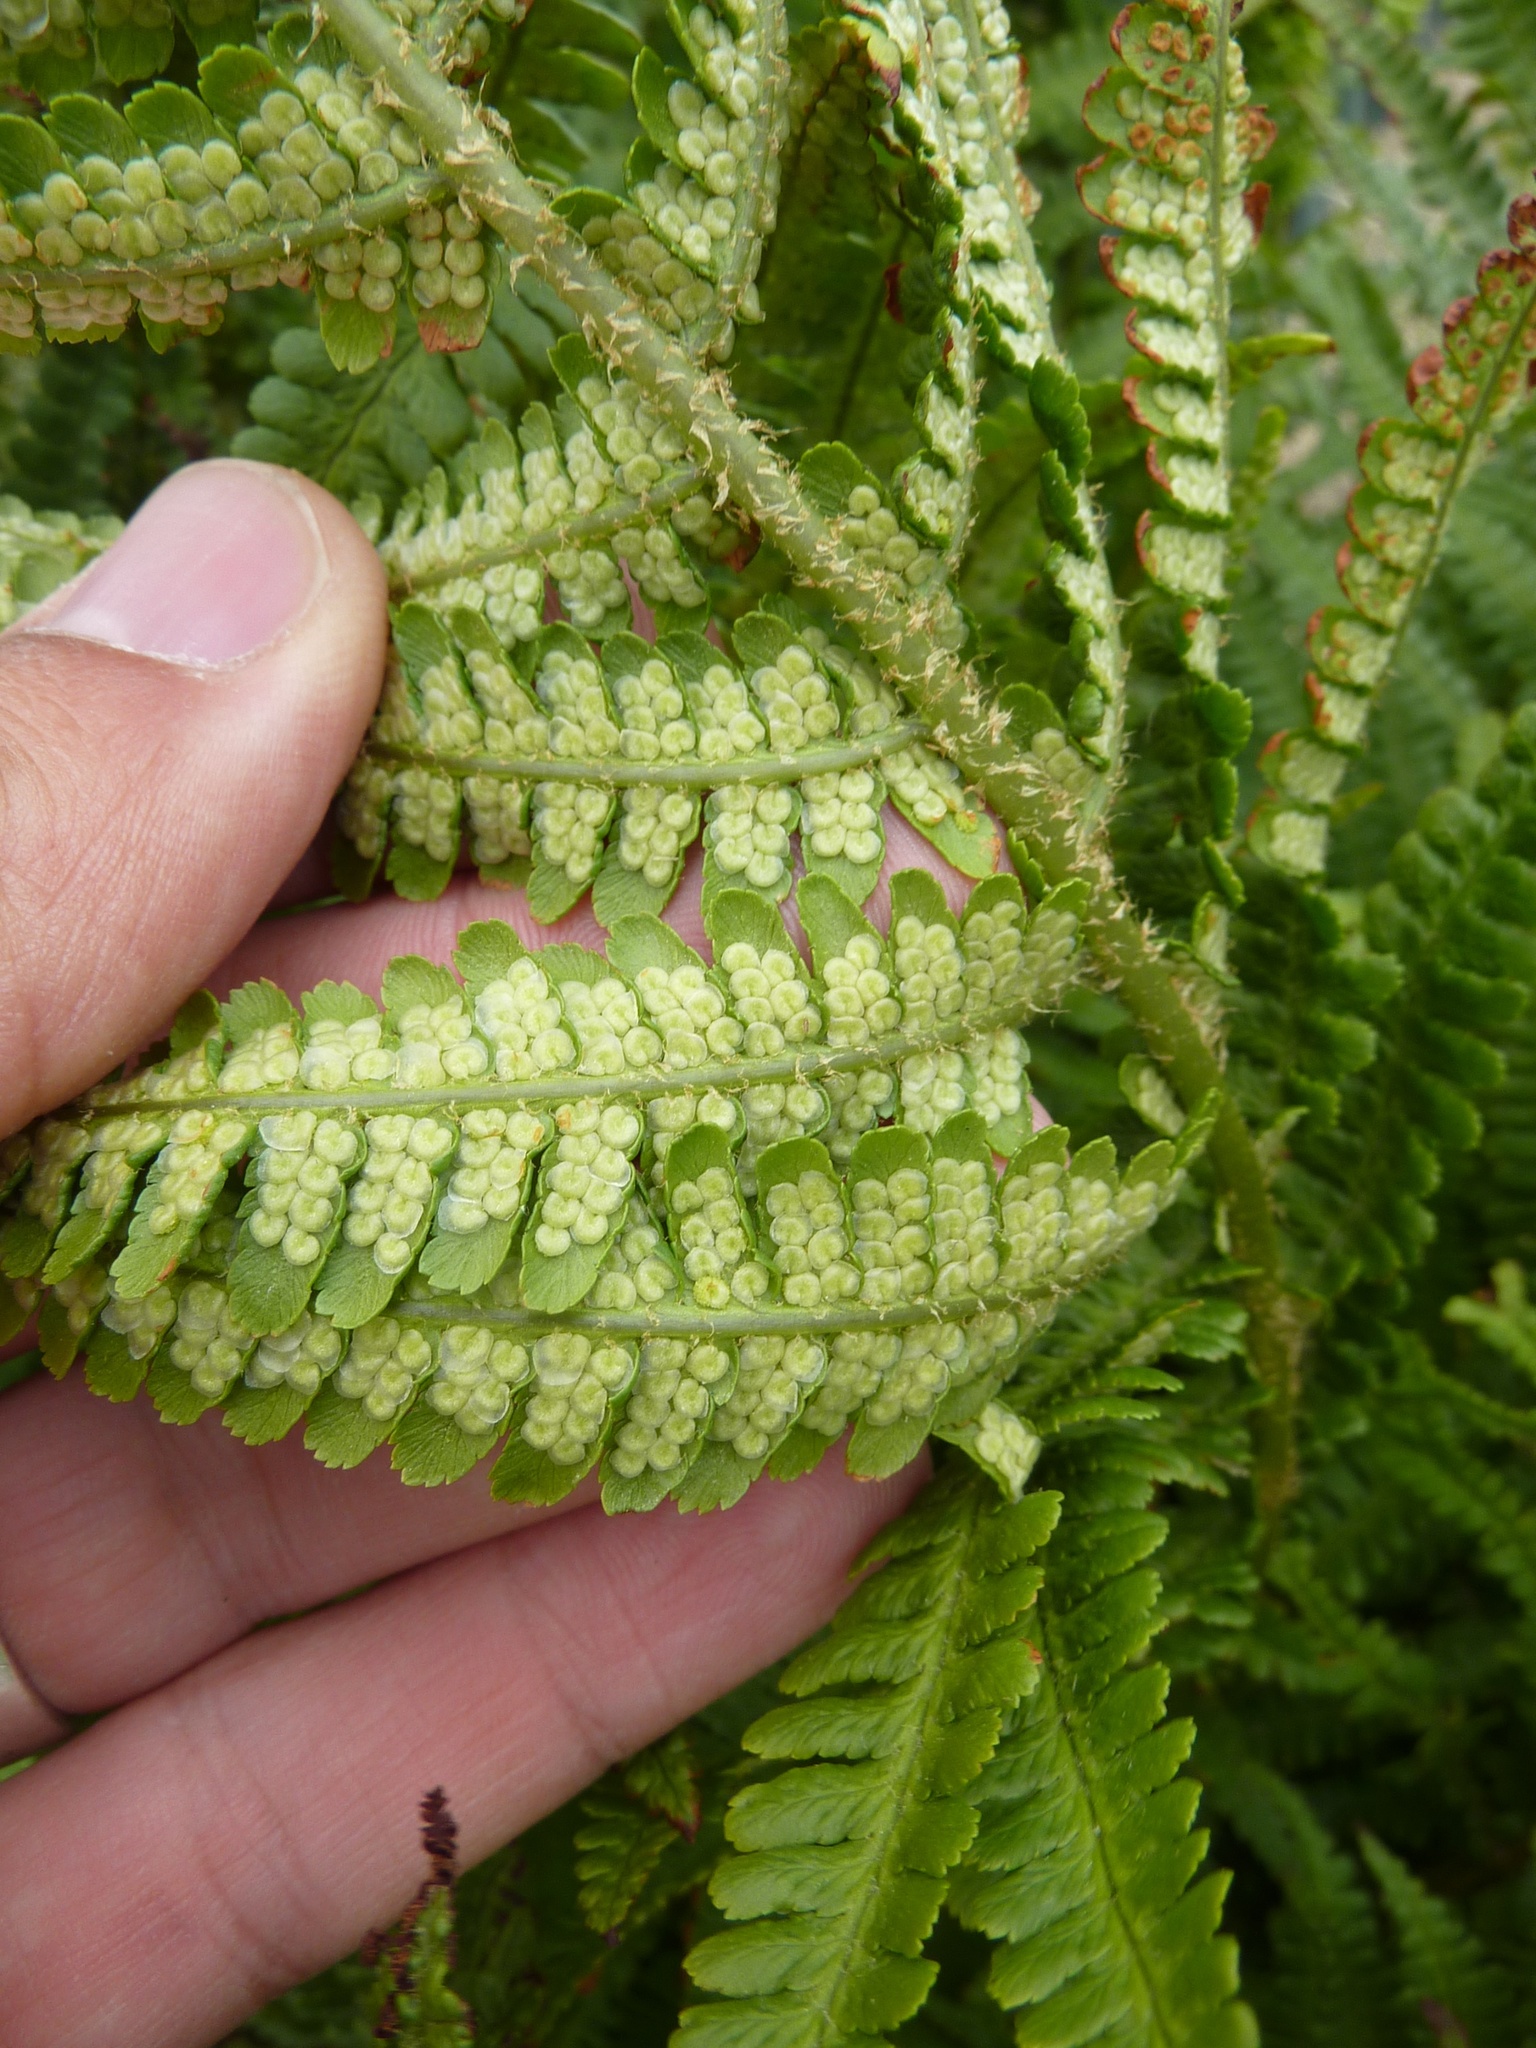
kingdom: Plantae
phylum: Tracheophyta
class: Polypodiopsida
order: Polypodiales
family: Dryopteridaceae
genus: Dryopteris
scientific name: Dryopteris filix-mas
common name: Male fern
